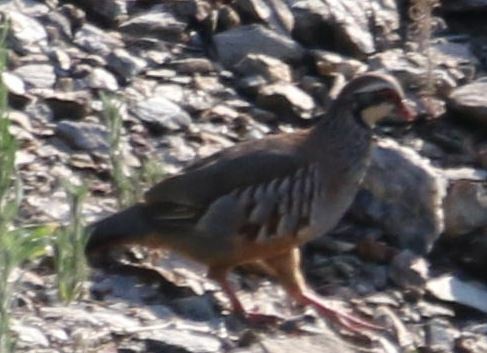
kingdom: Animalia
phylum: Chordata
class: Aves
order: Galliformes
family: Phasianidae
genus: Alectoris
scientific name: Alectoris rufa
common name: Red-legged partridge
